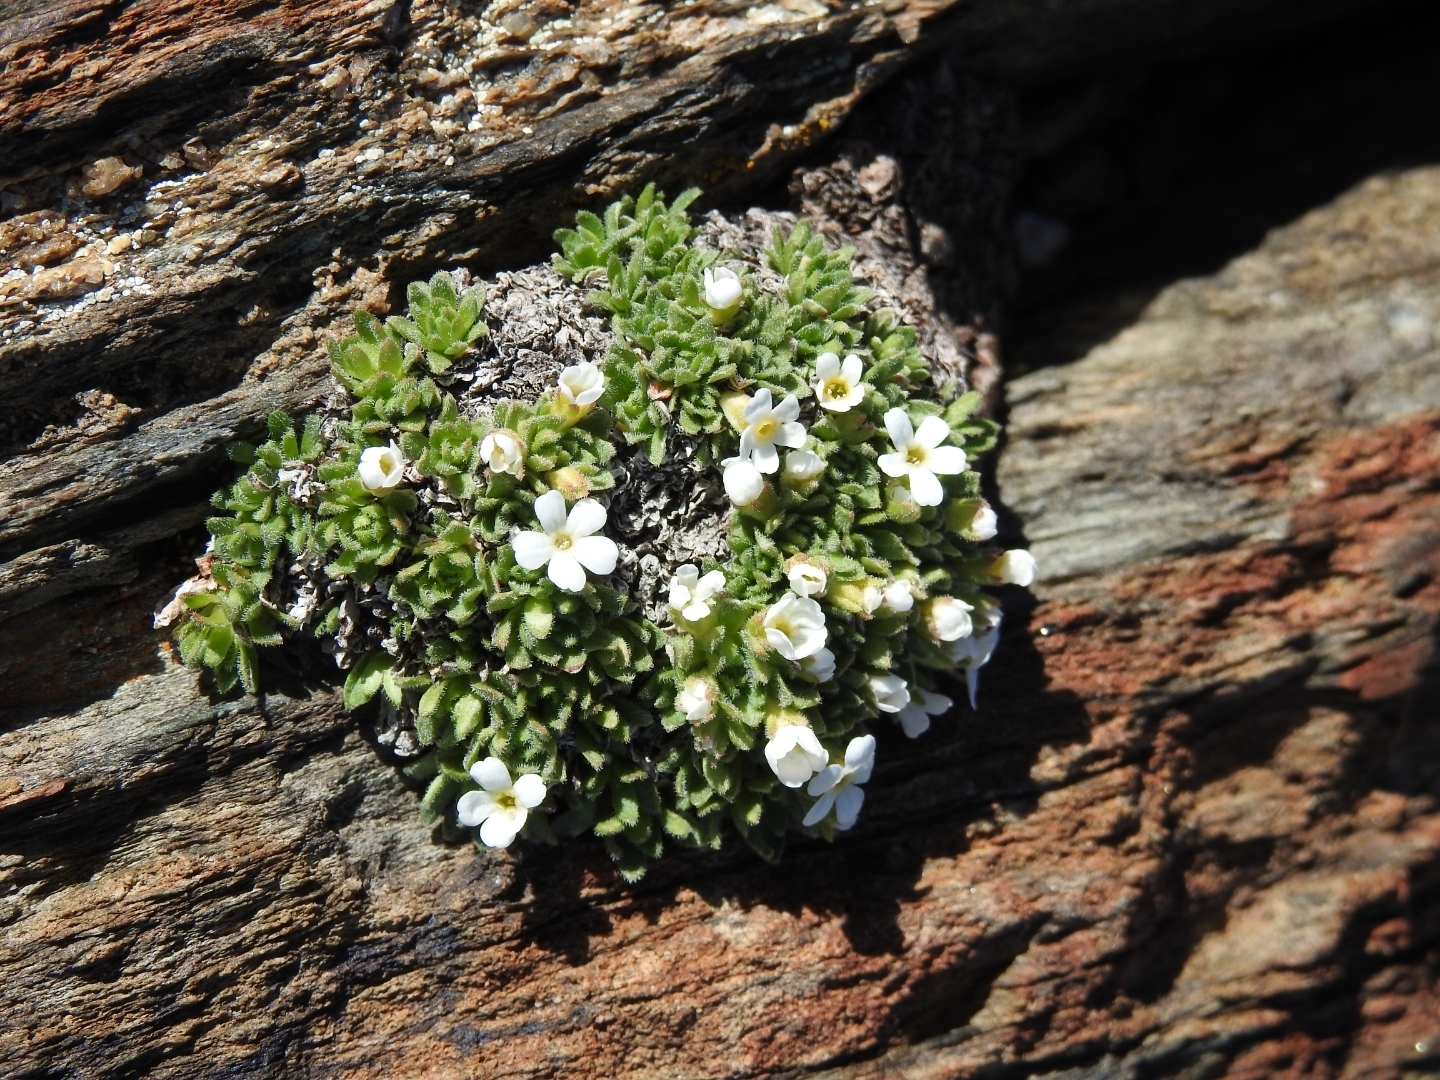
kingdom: Plantae
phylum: Tracheophyta
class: Magnoliopsida
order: Ericales
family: Primulaceae
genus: Androsace
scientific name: Androsace delphinensis
